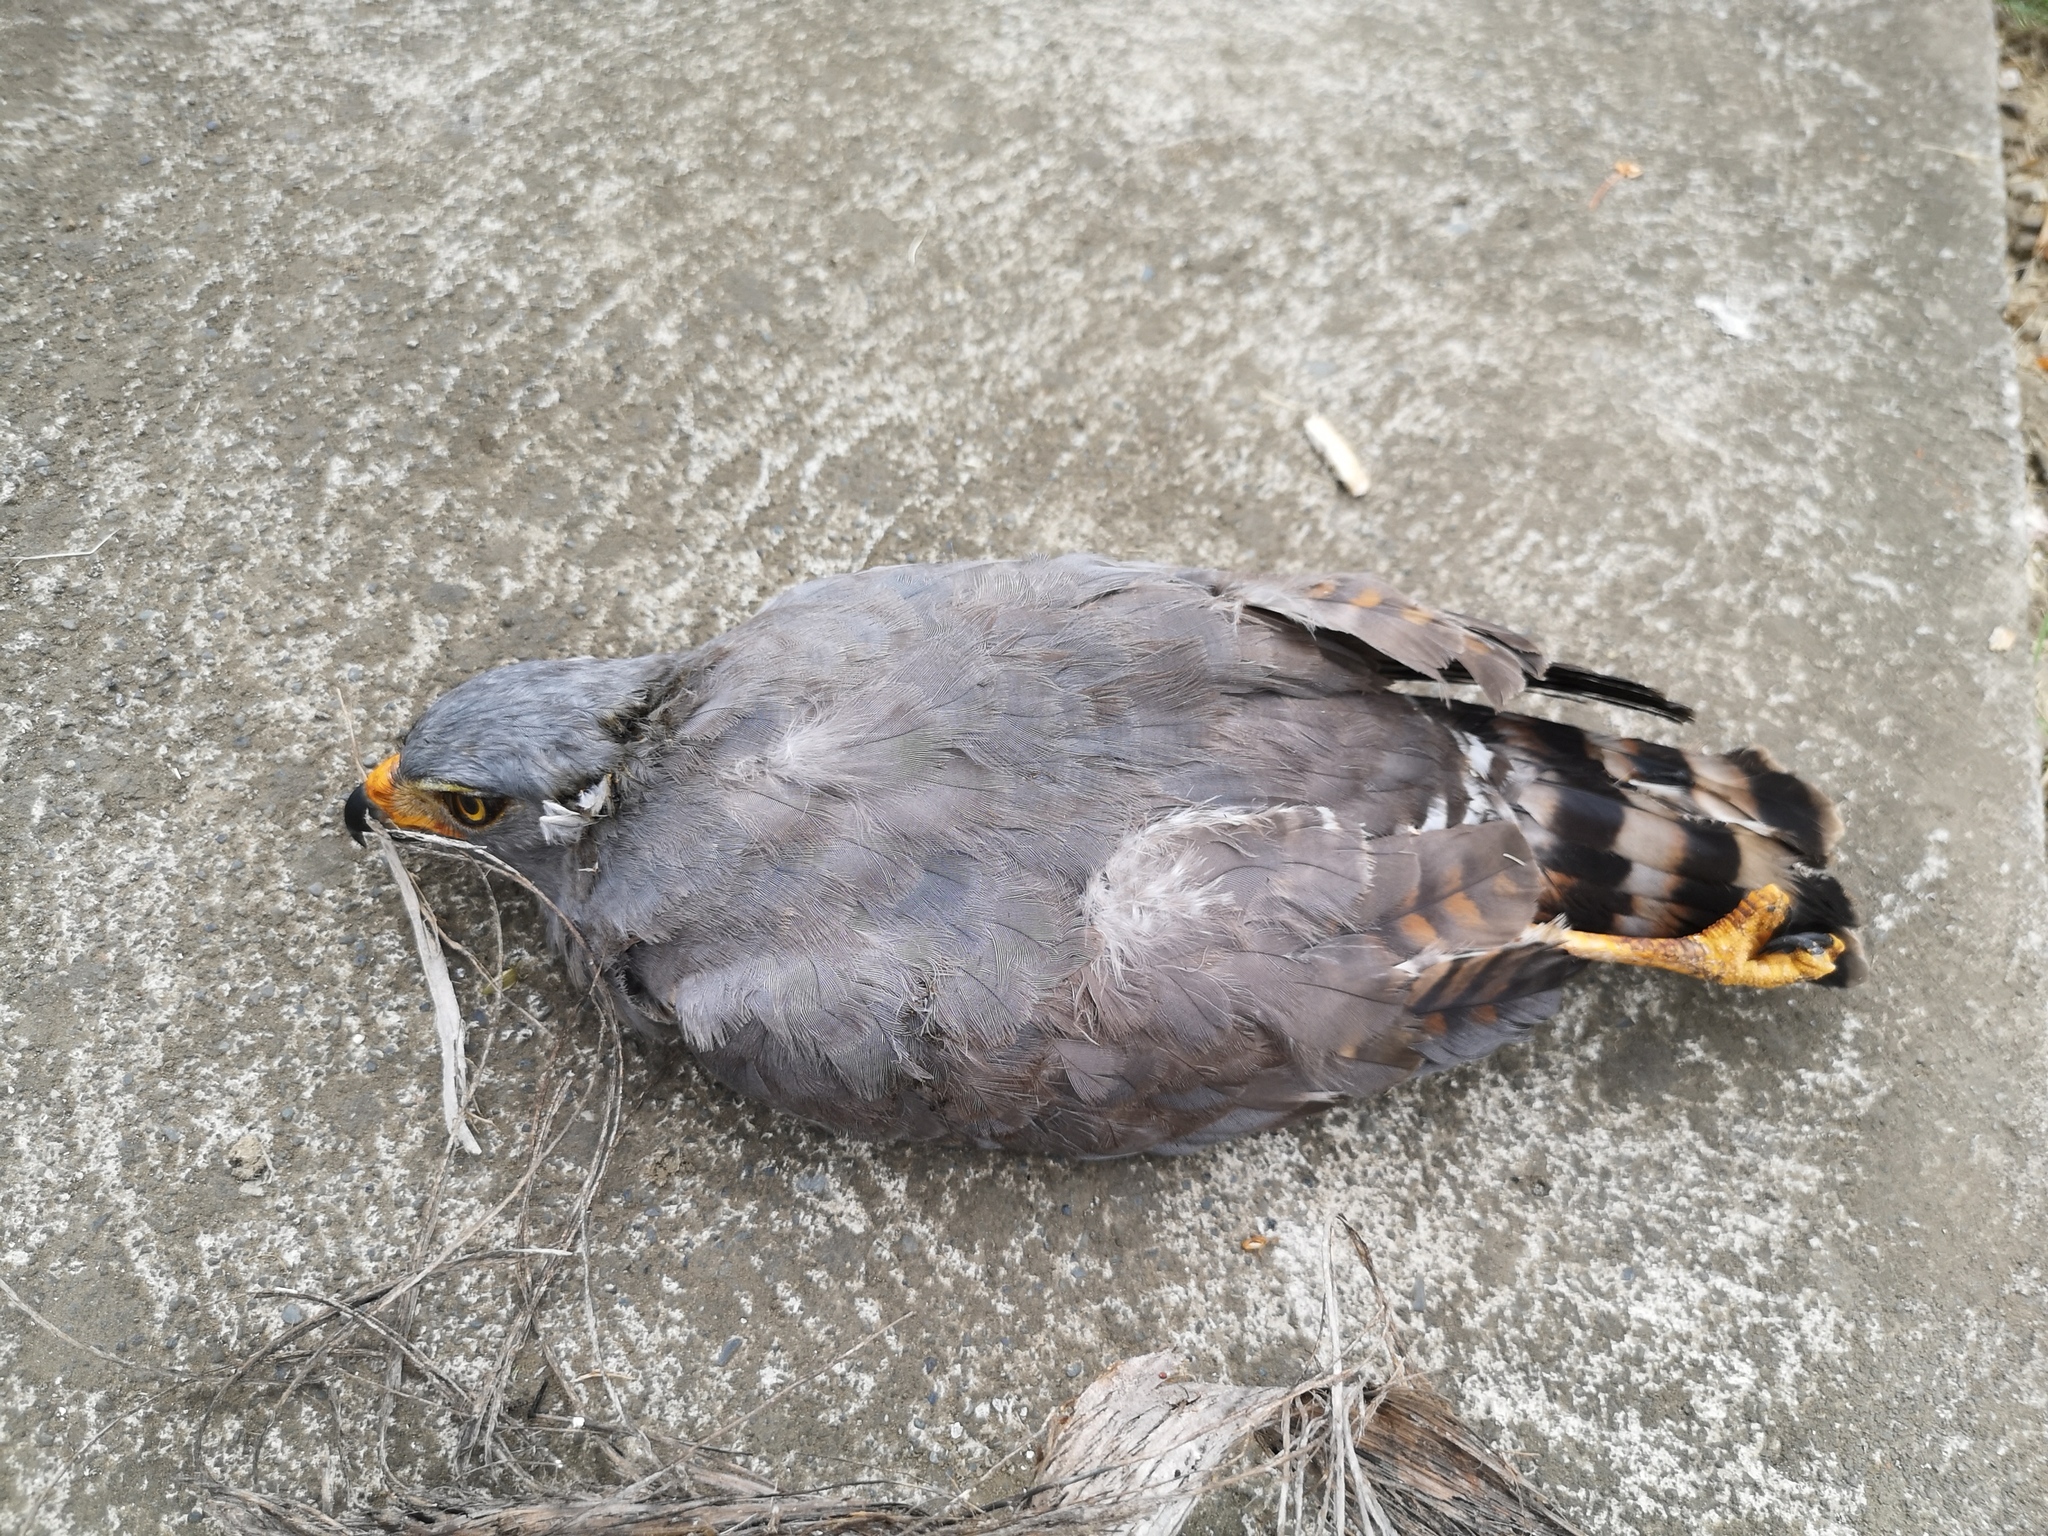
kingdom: Animalia
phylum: Chordata
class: Aves
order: Accipitriformes
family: Accipitridae
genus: Rupornis
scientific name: Rupornis magnirostris
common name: Roadside hawk
